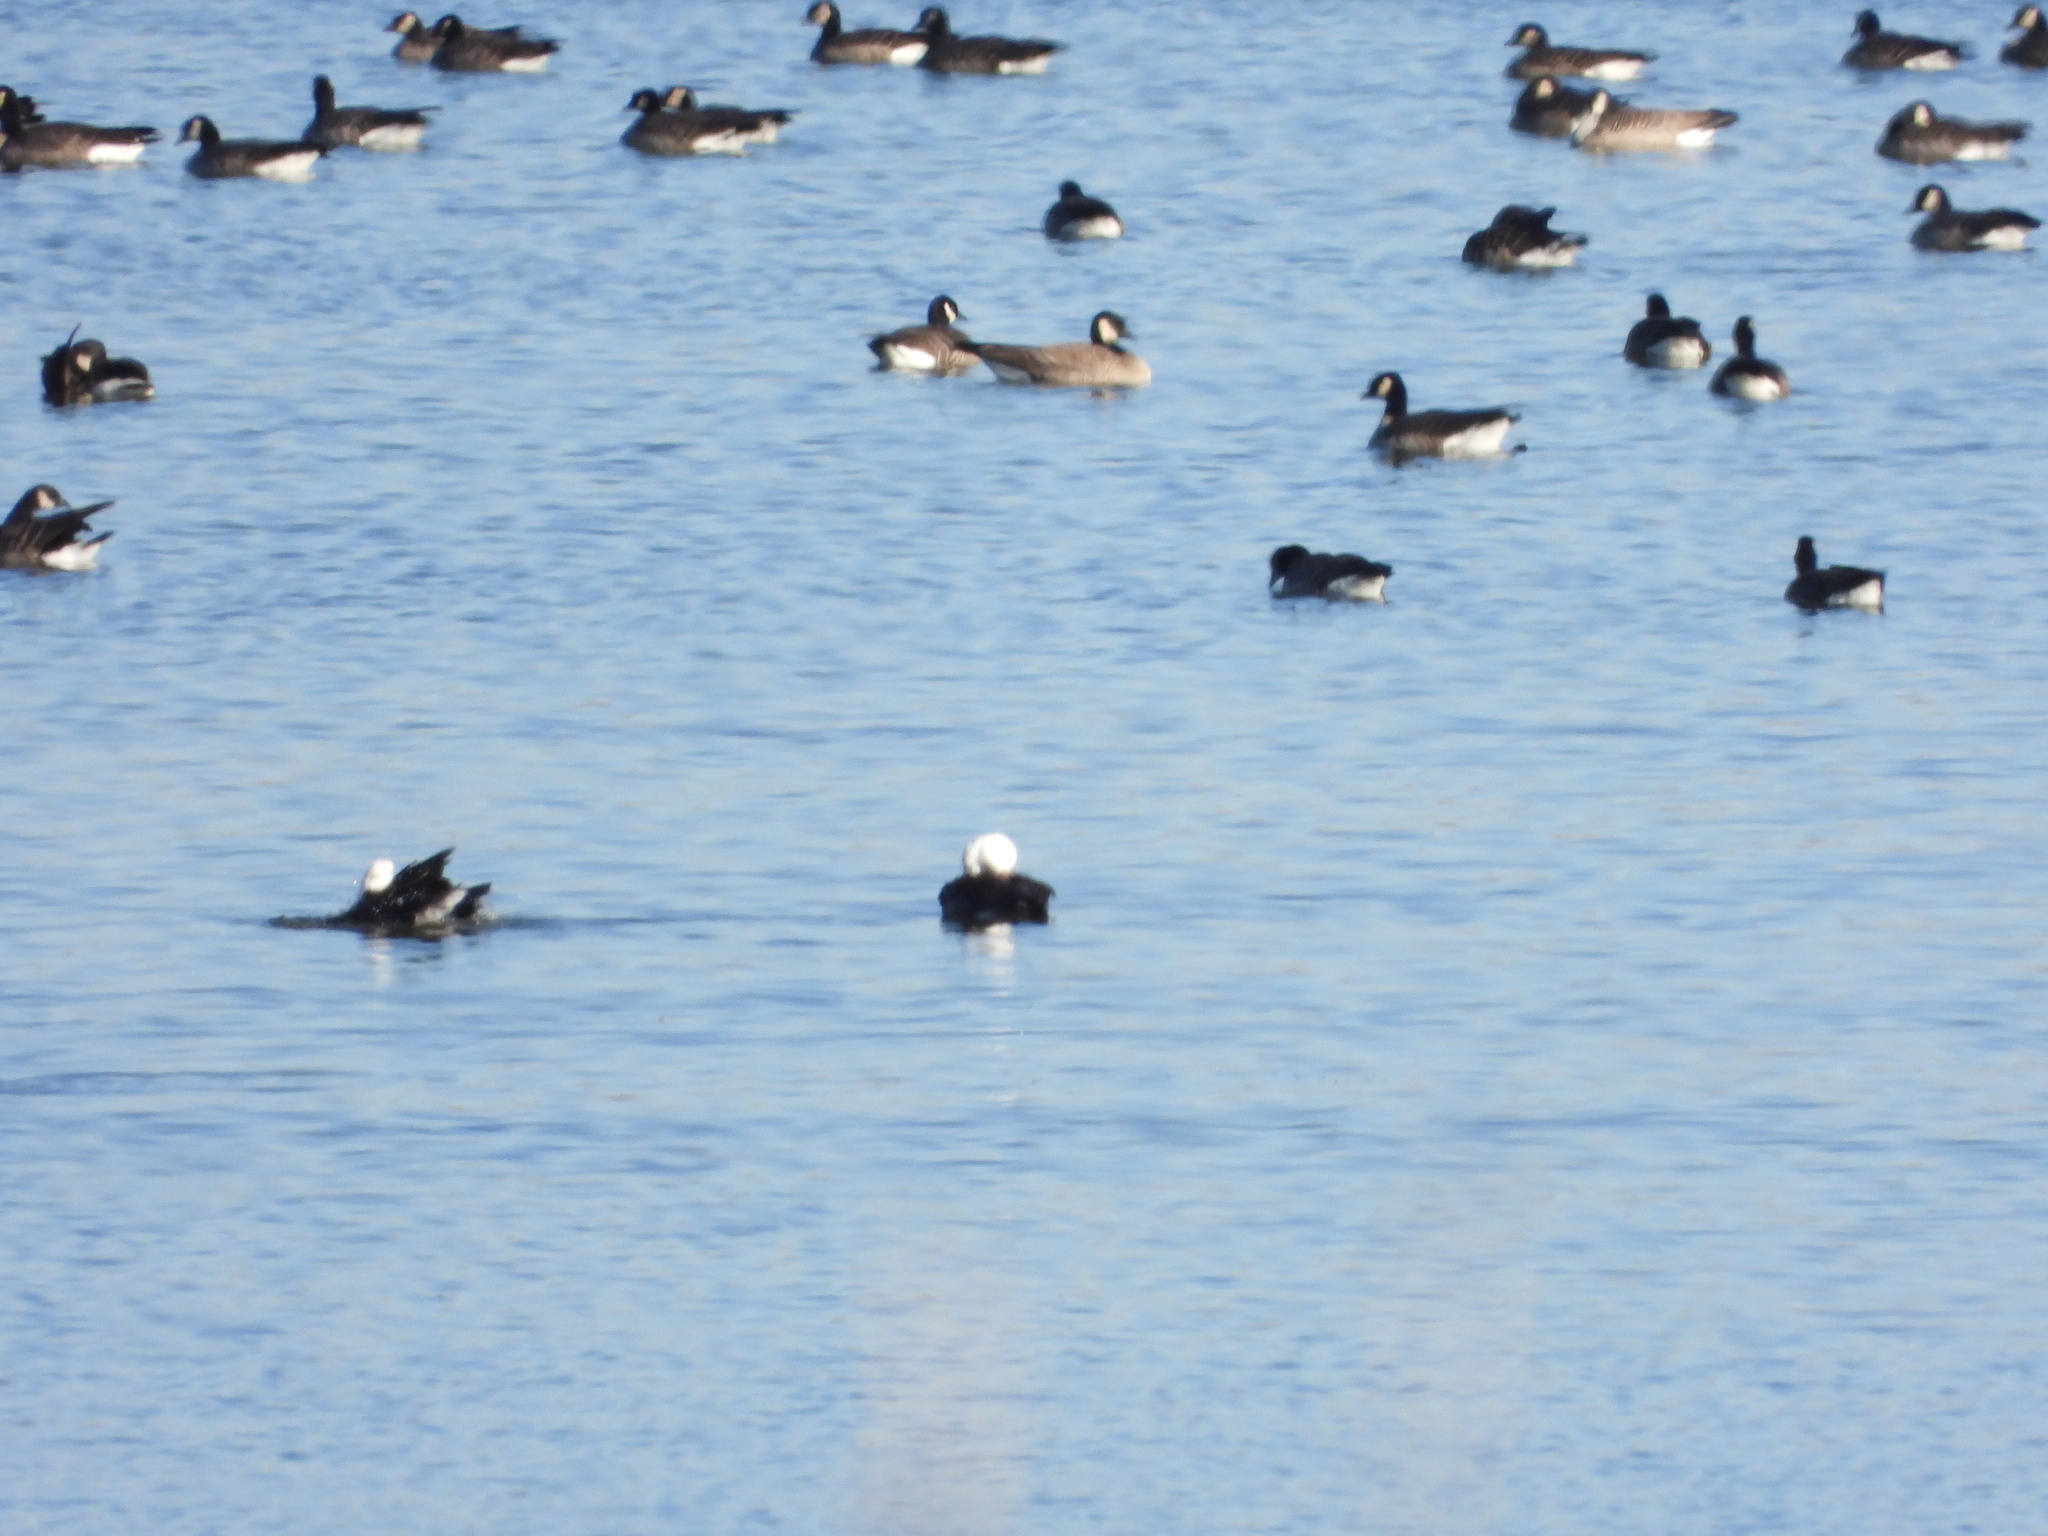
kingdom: Animalia
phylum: Chordata
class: Aves
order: Anseriformes
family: Anatidae
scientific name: Anatidae
